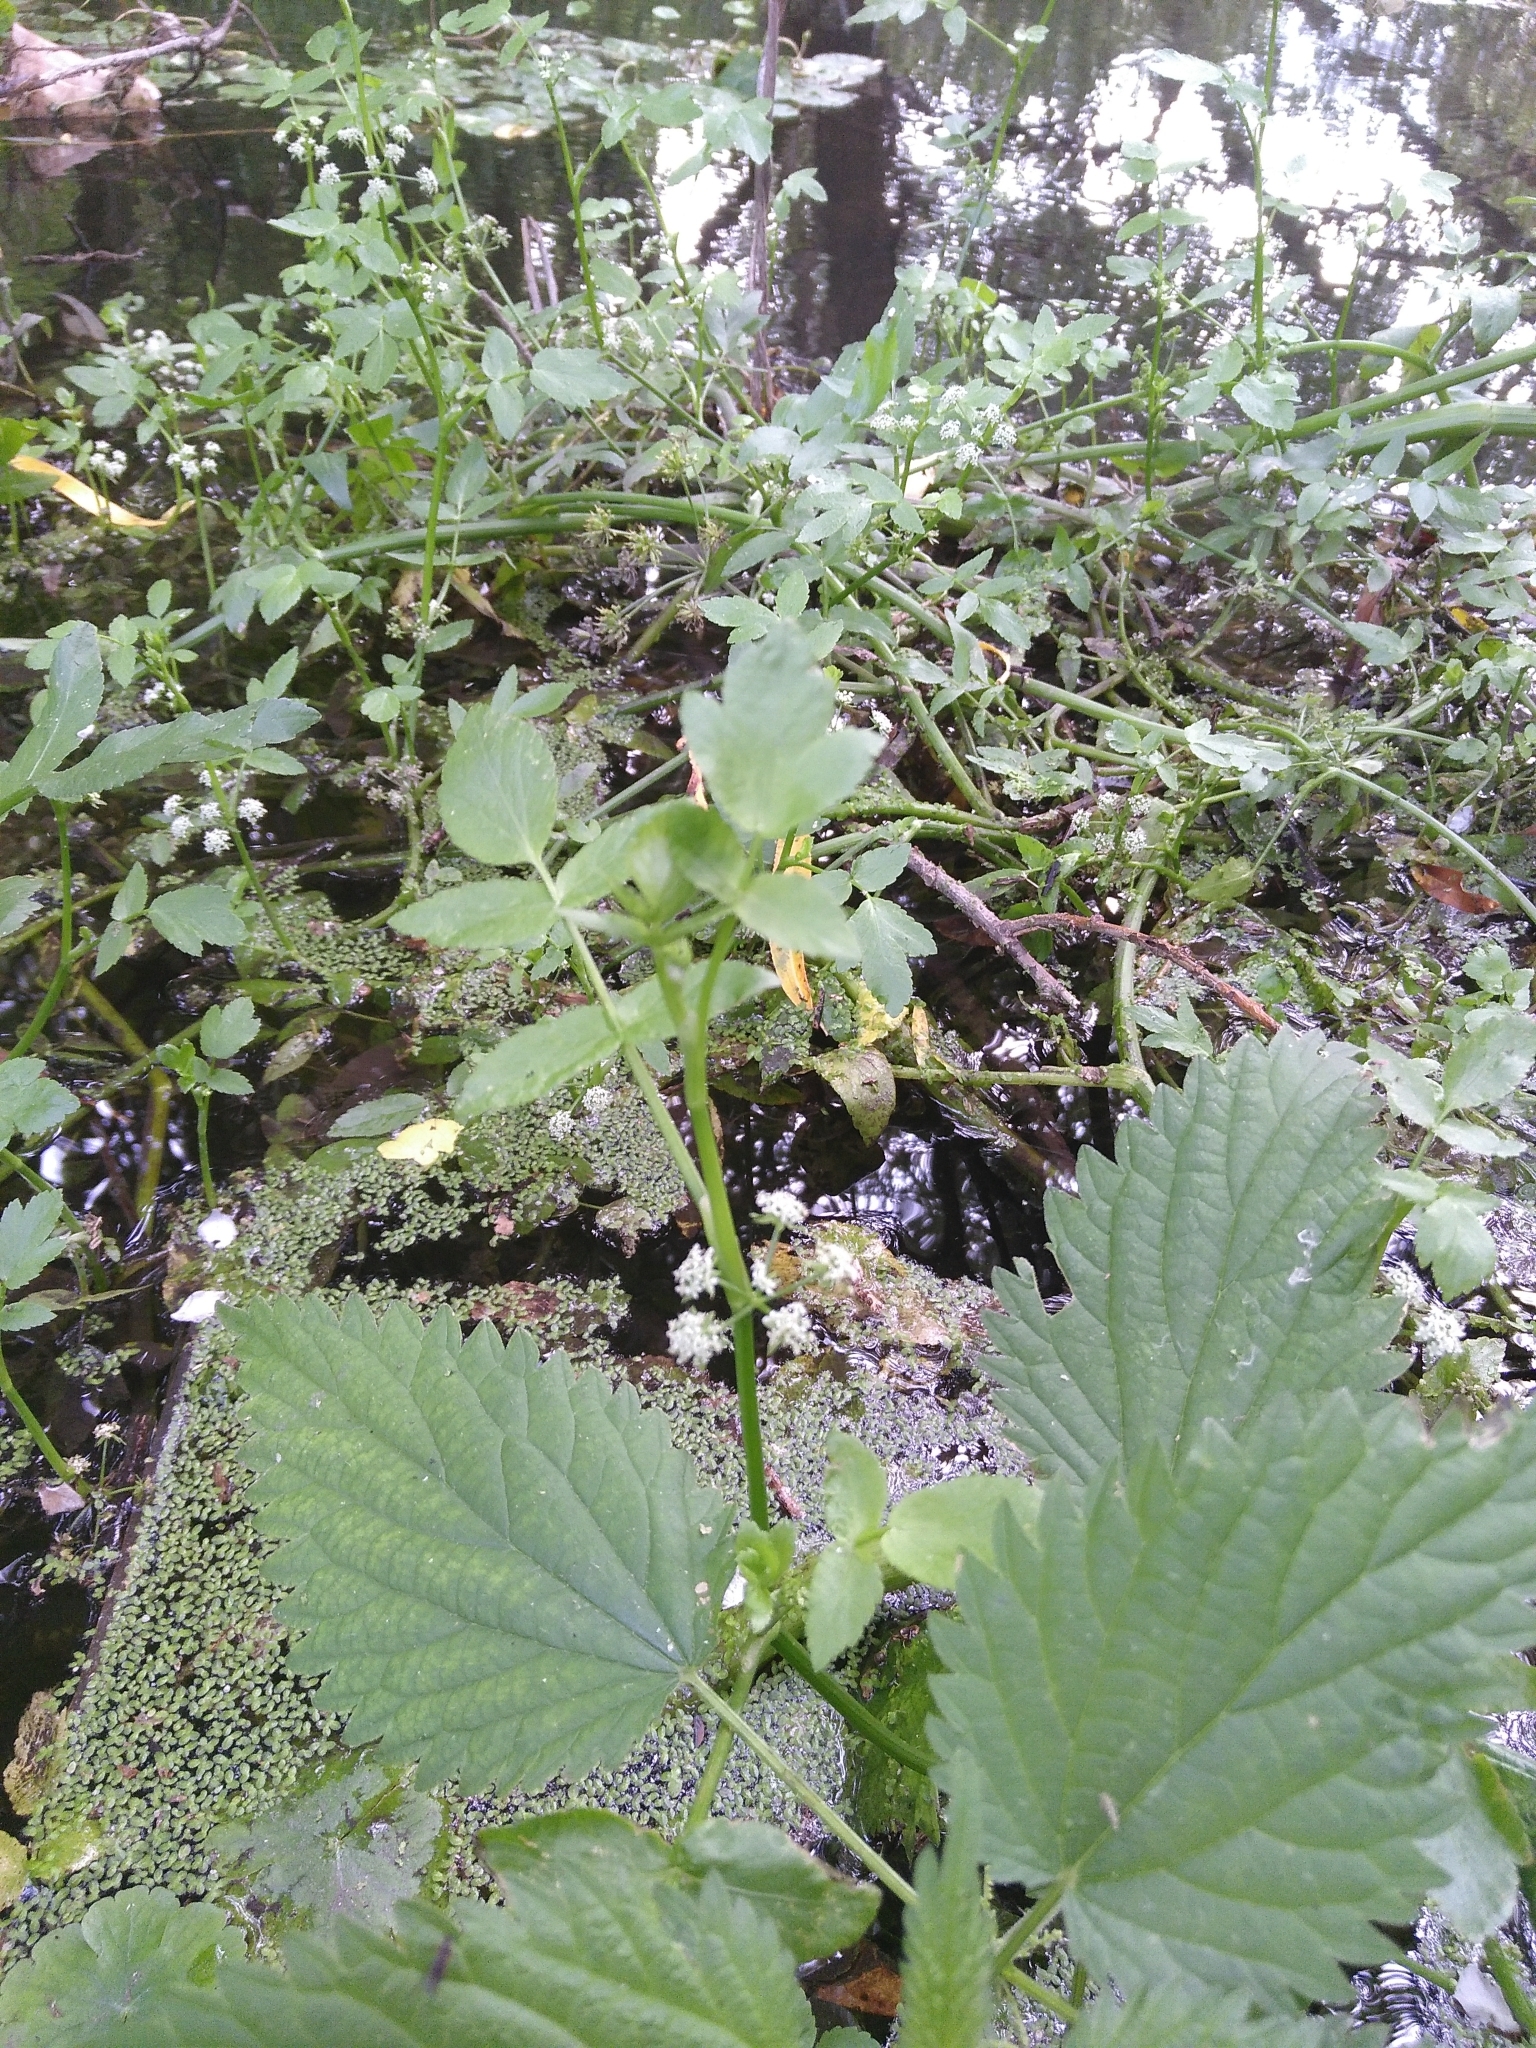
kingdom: Plantae
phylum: Tracheophyta
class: Magnoliopsida
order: Apiales
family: Apiaceae
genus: Helosciadium
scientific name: Helosciadium nodiflorum
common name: Fool's-watercress
